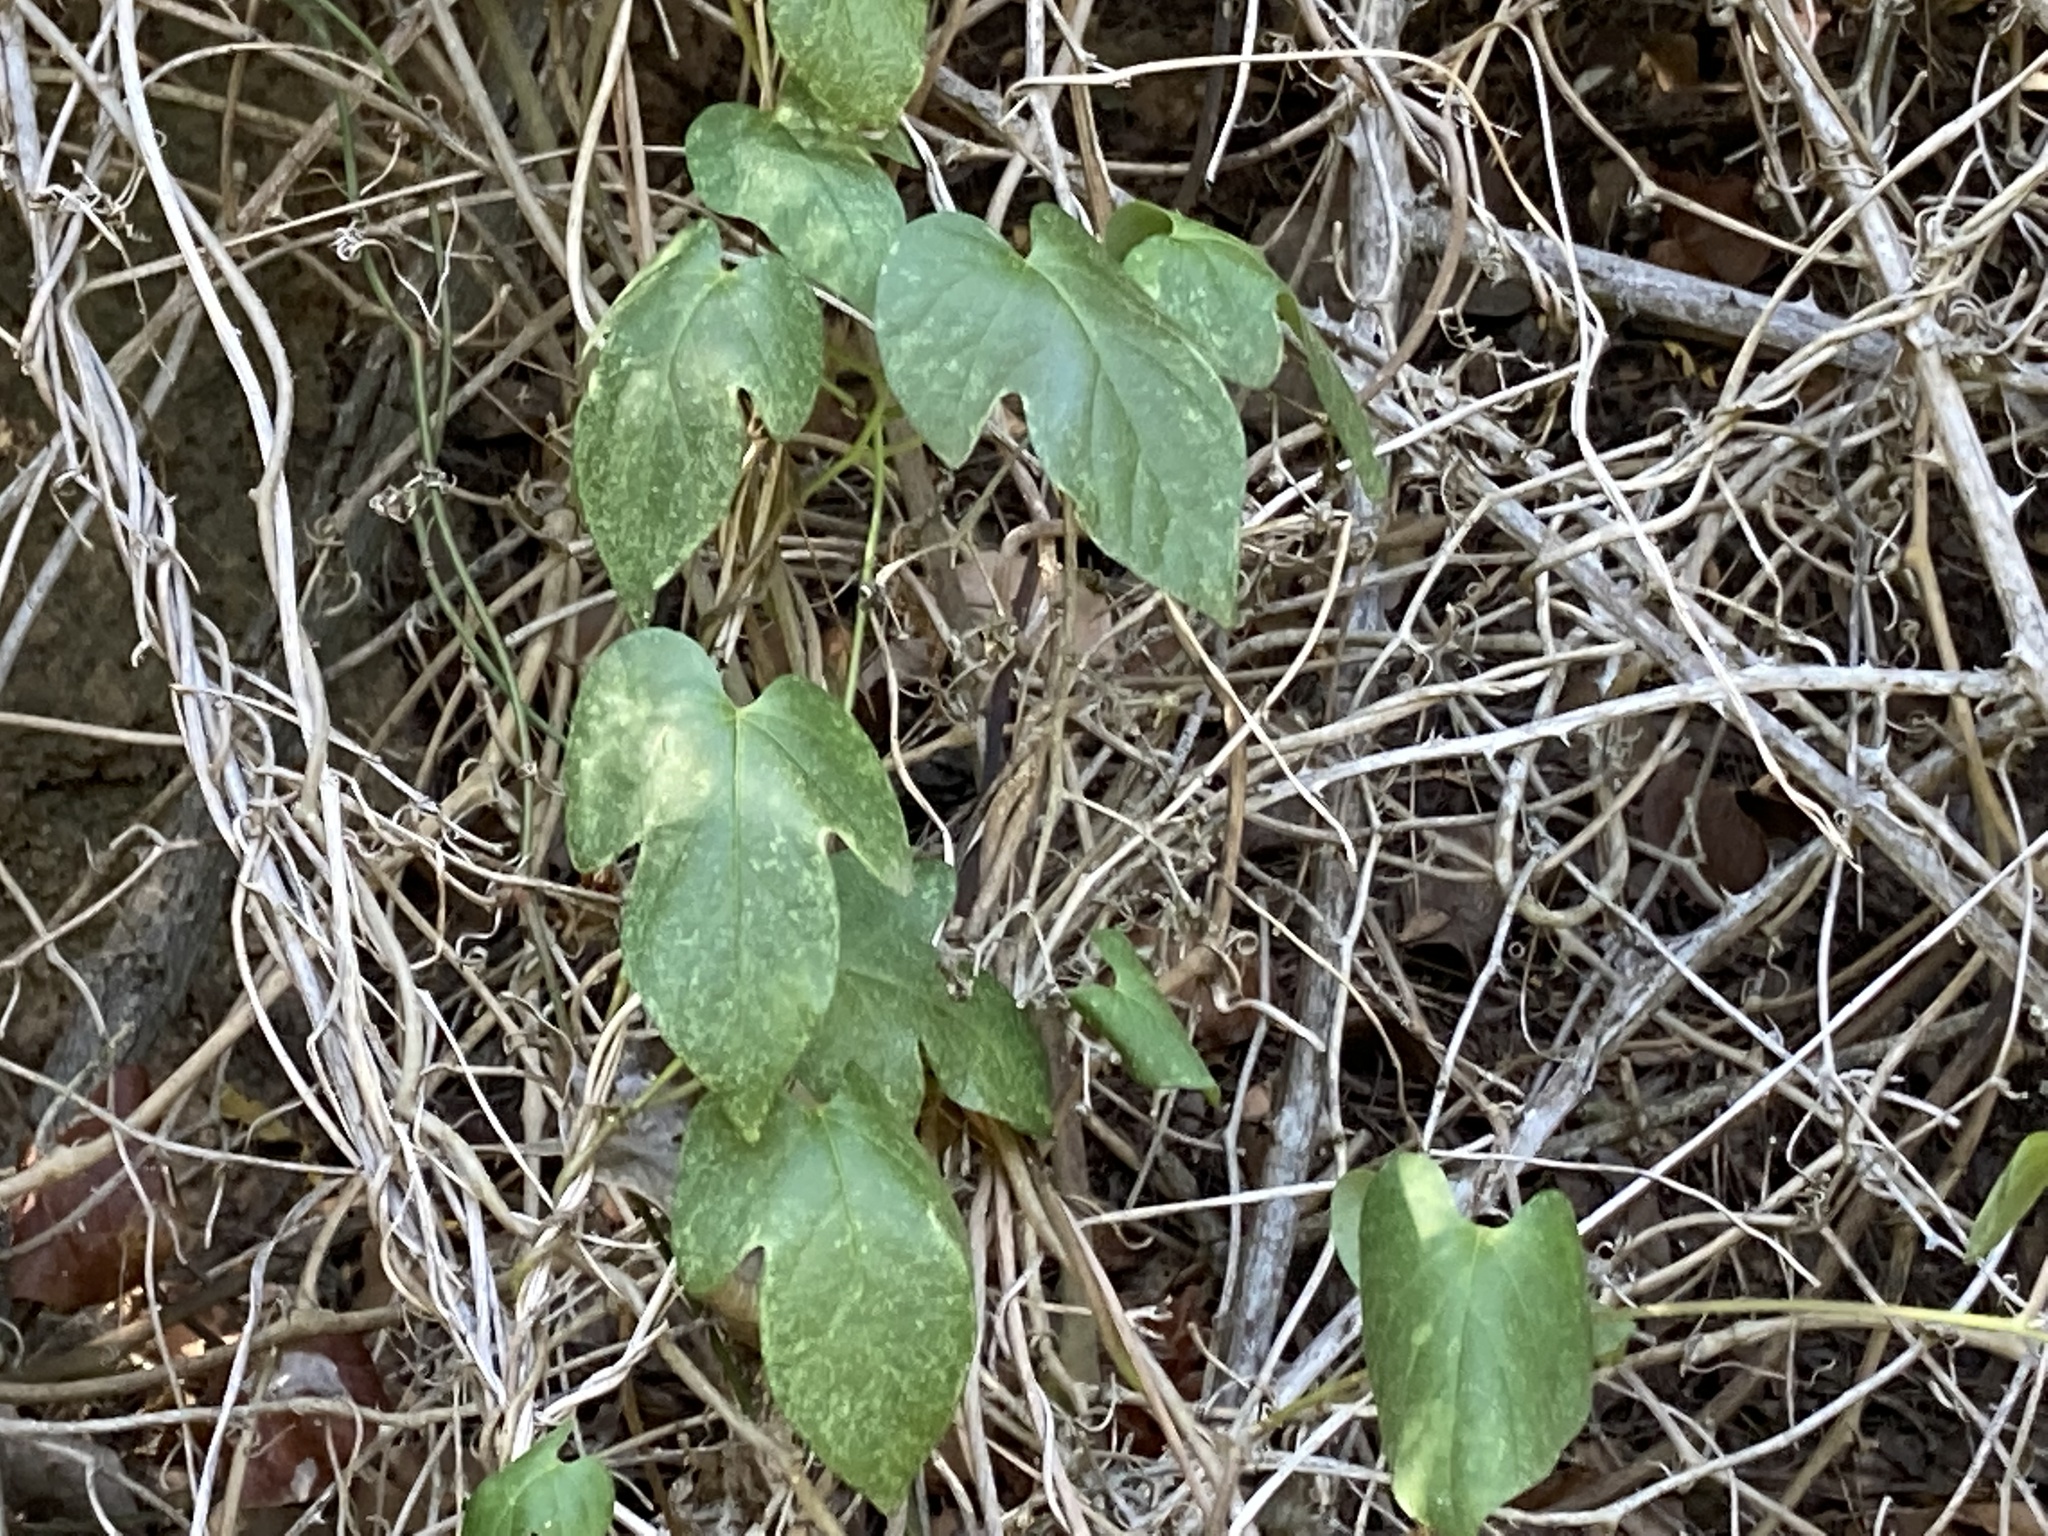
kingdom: Plantae
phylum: Tracheophyta
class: Magnoliopsida
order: Solanales
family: Convolvulaceae
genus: Ipomoea
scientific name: Ipomoea indica
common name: Blue dawnflower
